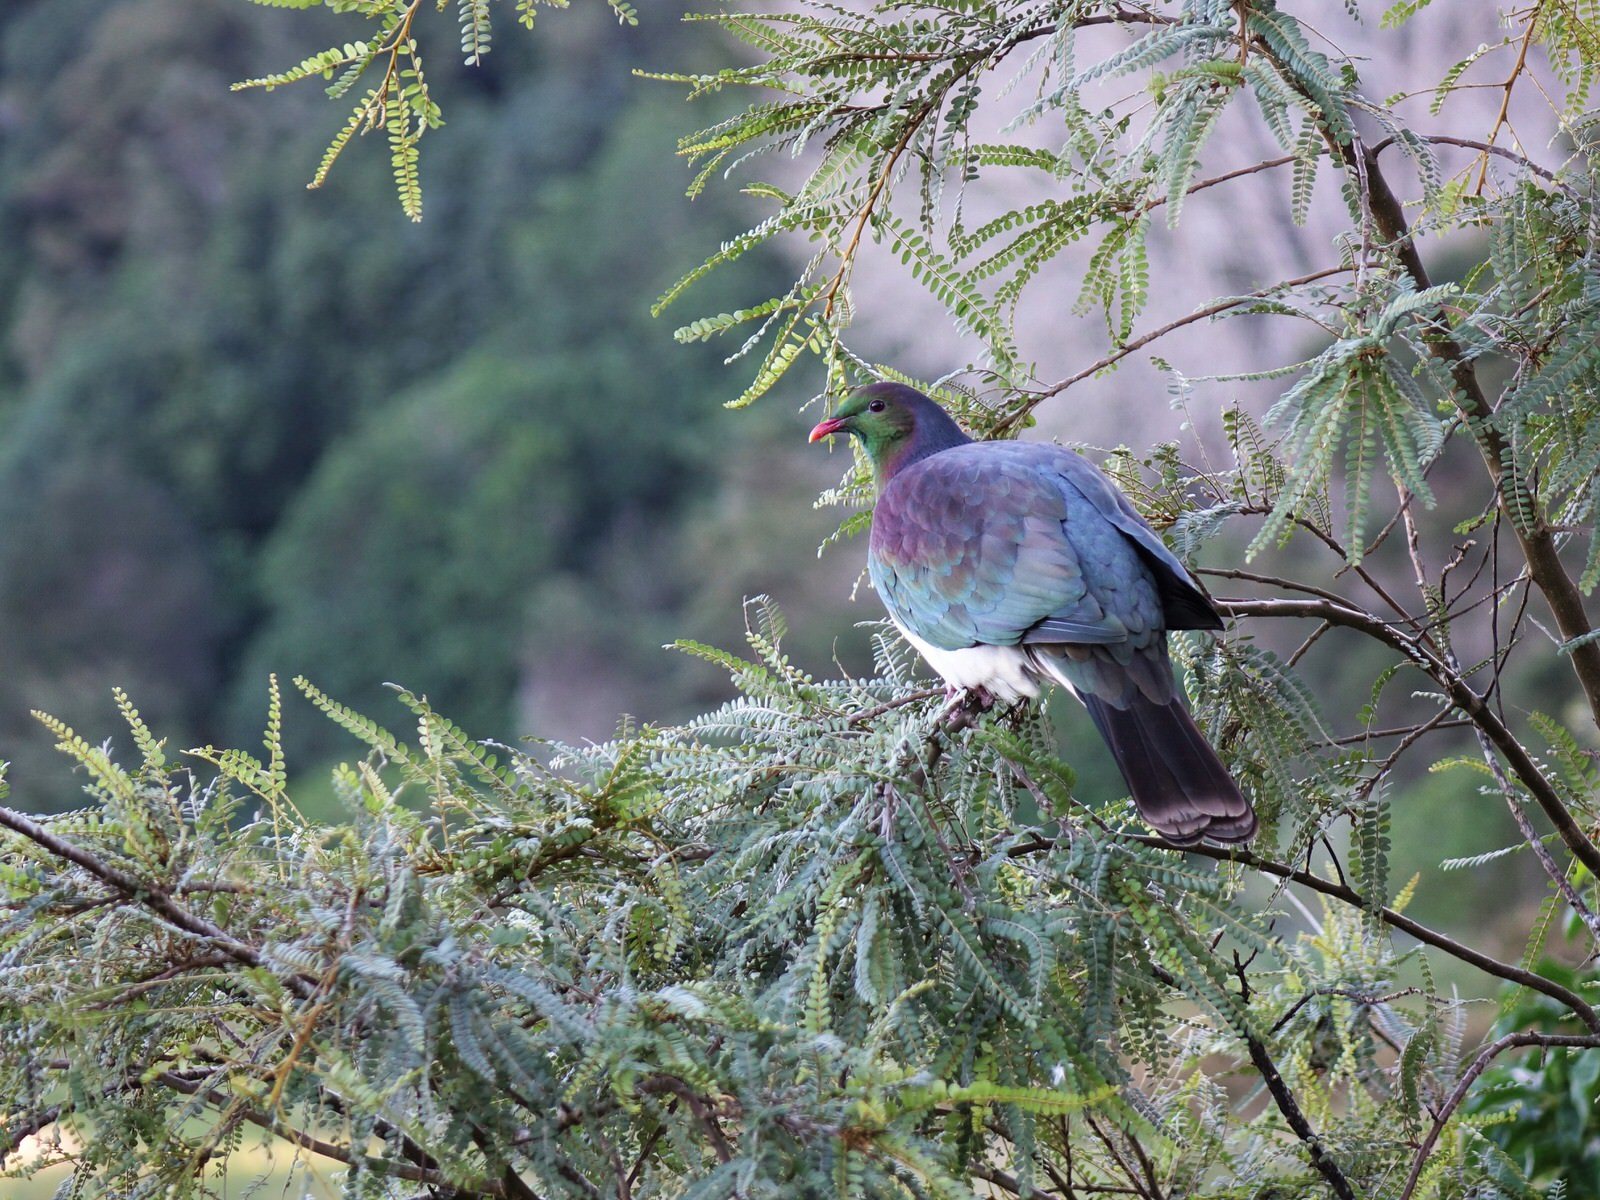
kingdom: Animalia
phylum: Chordata
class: Aves
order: Columbiformes
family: Columbidae
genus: Hemiphaga
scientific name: Hemiphaga novaeseelandiae
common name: New zealand pigeon
